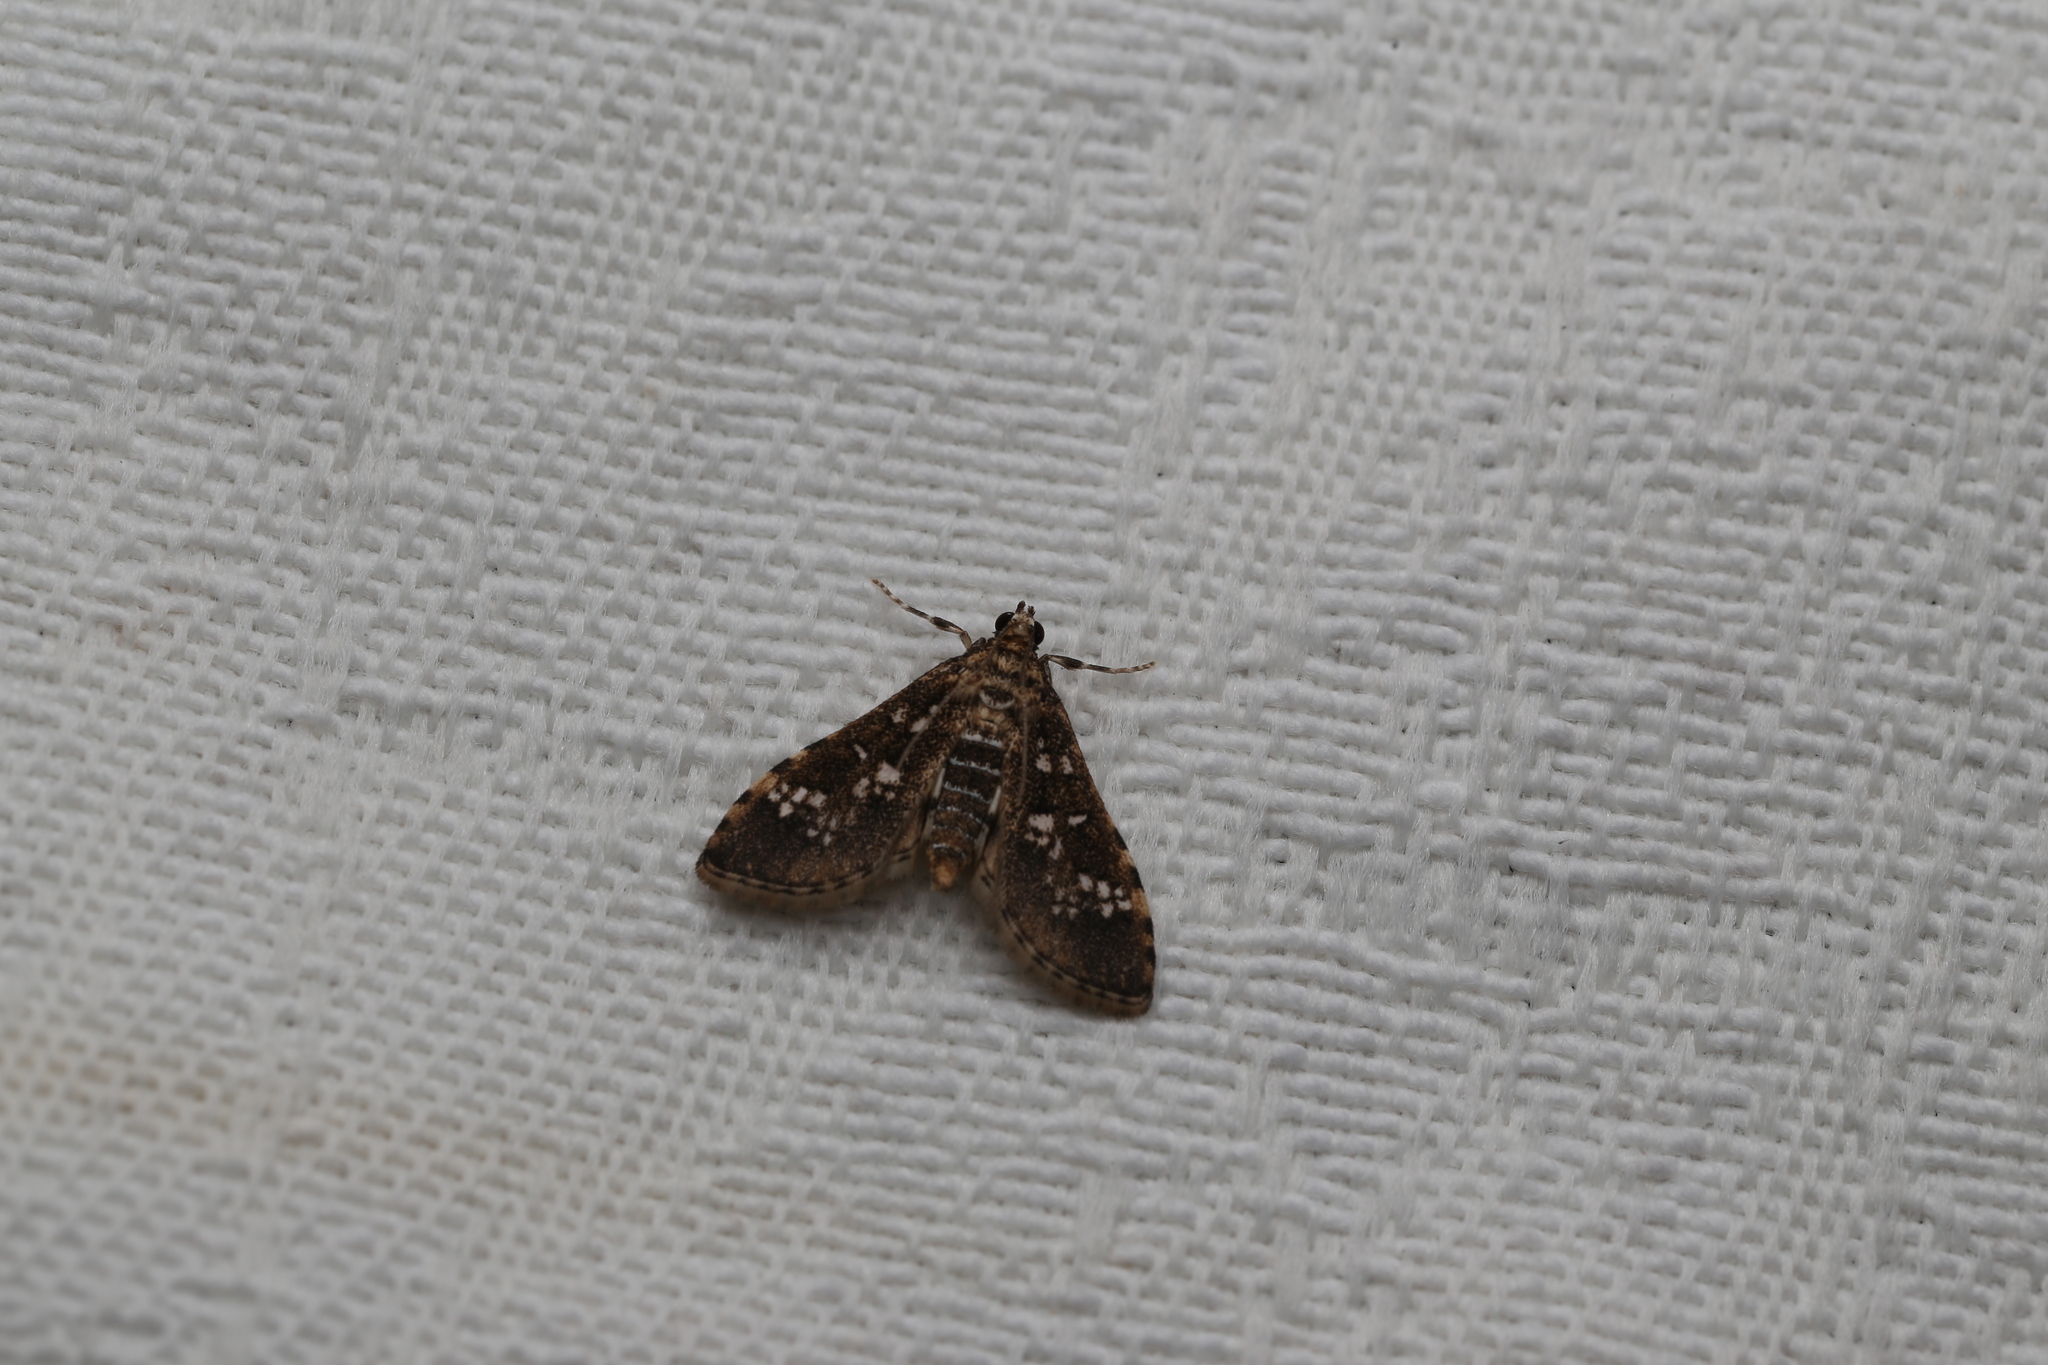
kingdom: Animalia
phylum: Arthropoda
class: Insecta
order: Lepidoptera
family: Crambidae
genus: Samea
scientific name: Samea multiplicalis
